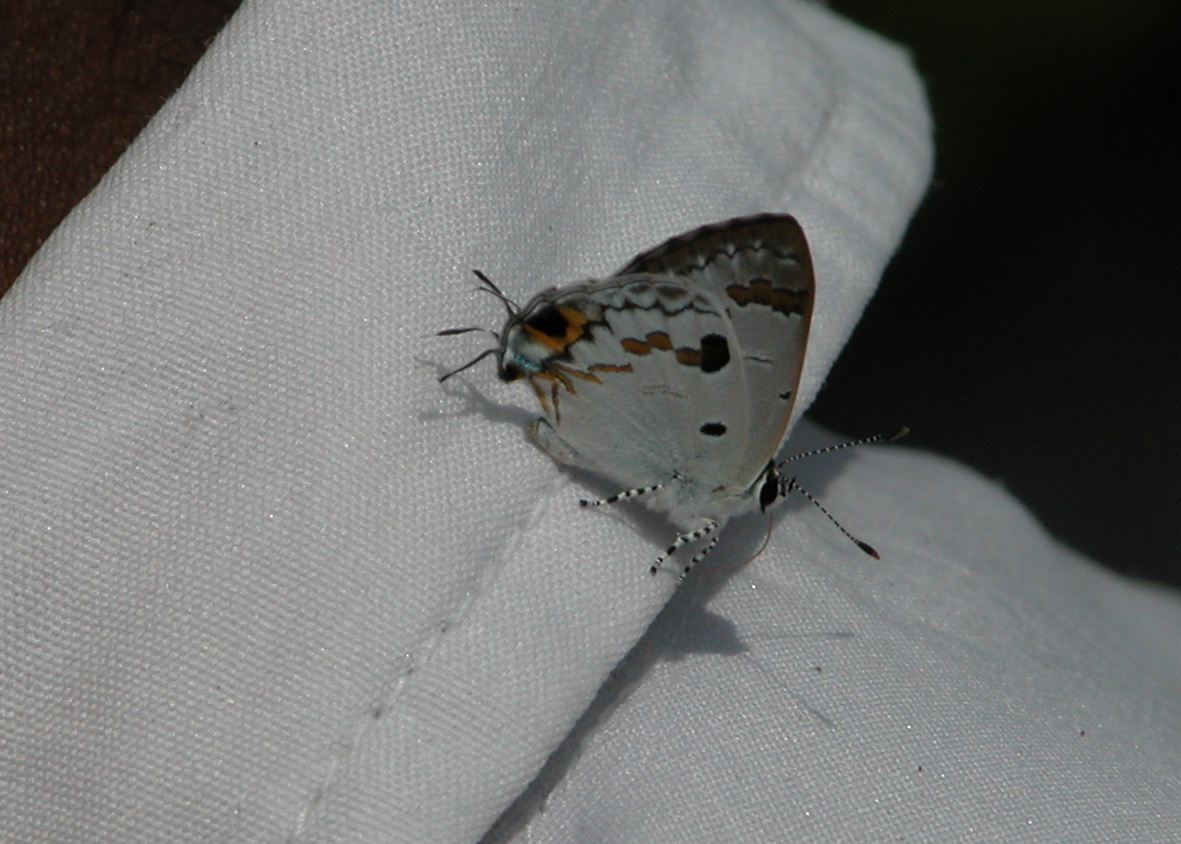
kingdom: Animalia
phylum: Arthropoda
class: Insecta
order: Lepidoptera
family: Lycaenidae
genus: Chliaria
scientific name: Chliaria othona
